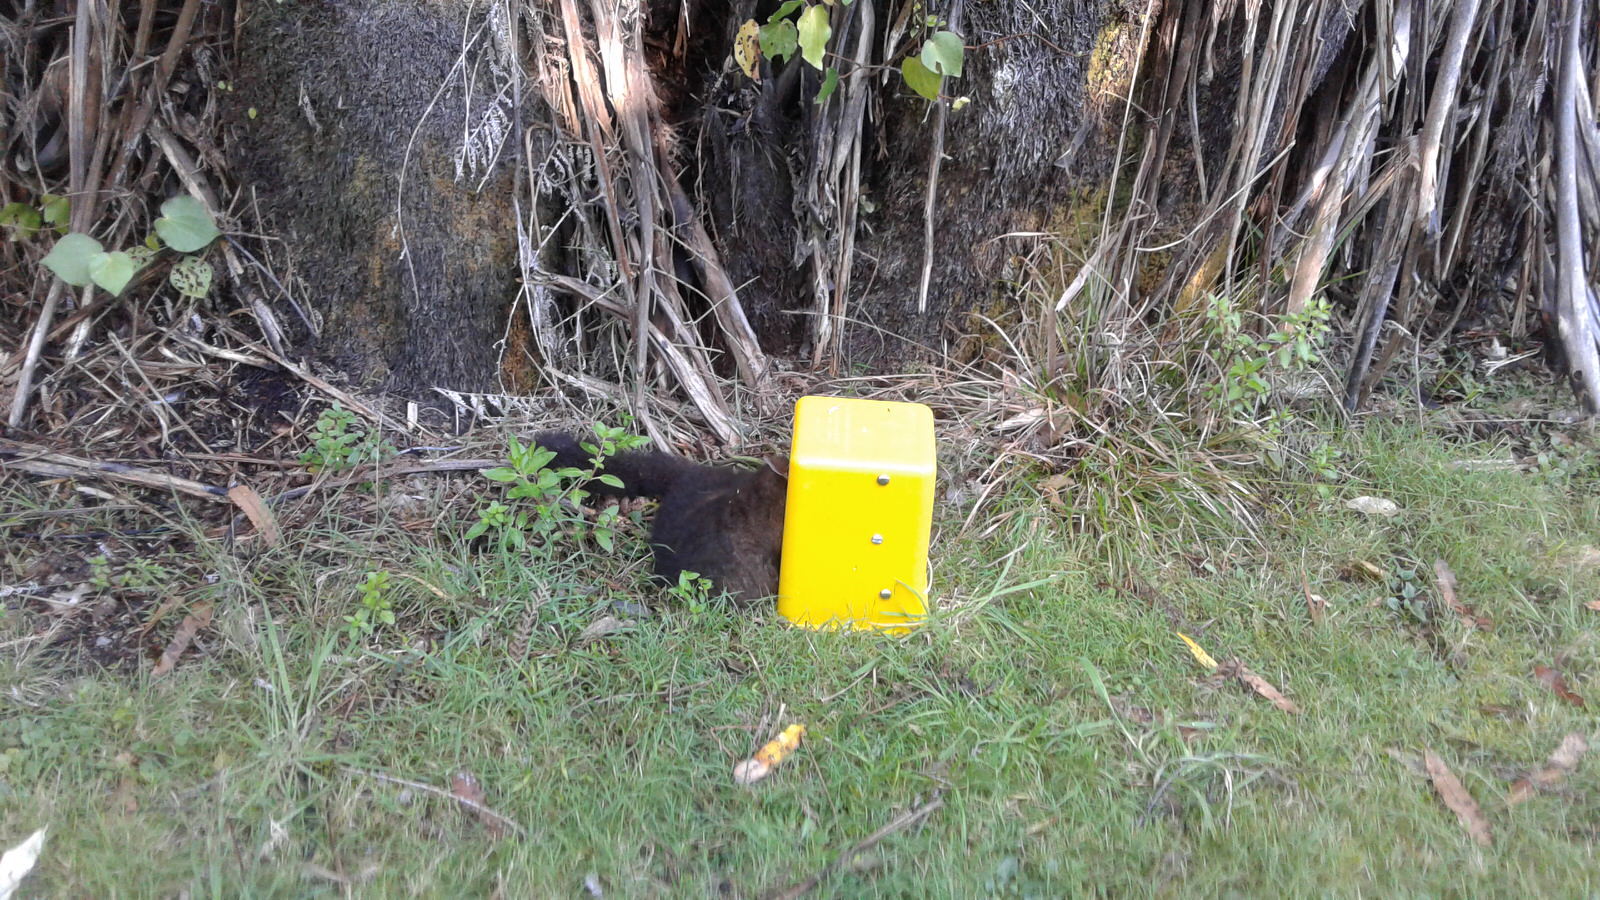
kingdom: Animalia
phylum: Chordata
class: Mammalia
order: Diprotodontia
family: Phalangeridae
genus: Trichosurus
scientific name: Trichosurus vulpecula
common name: Common brushtail
